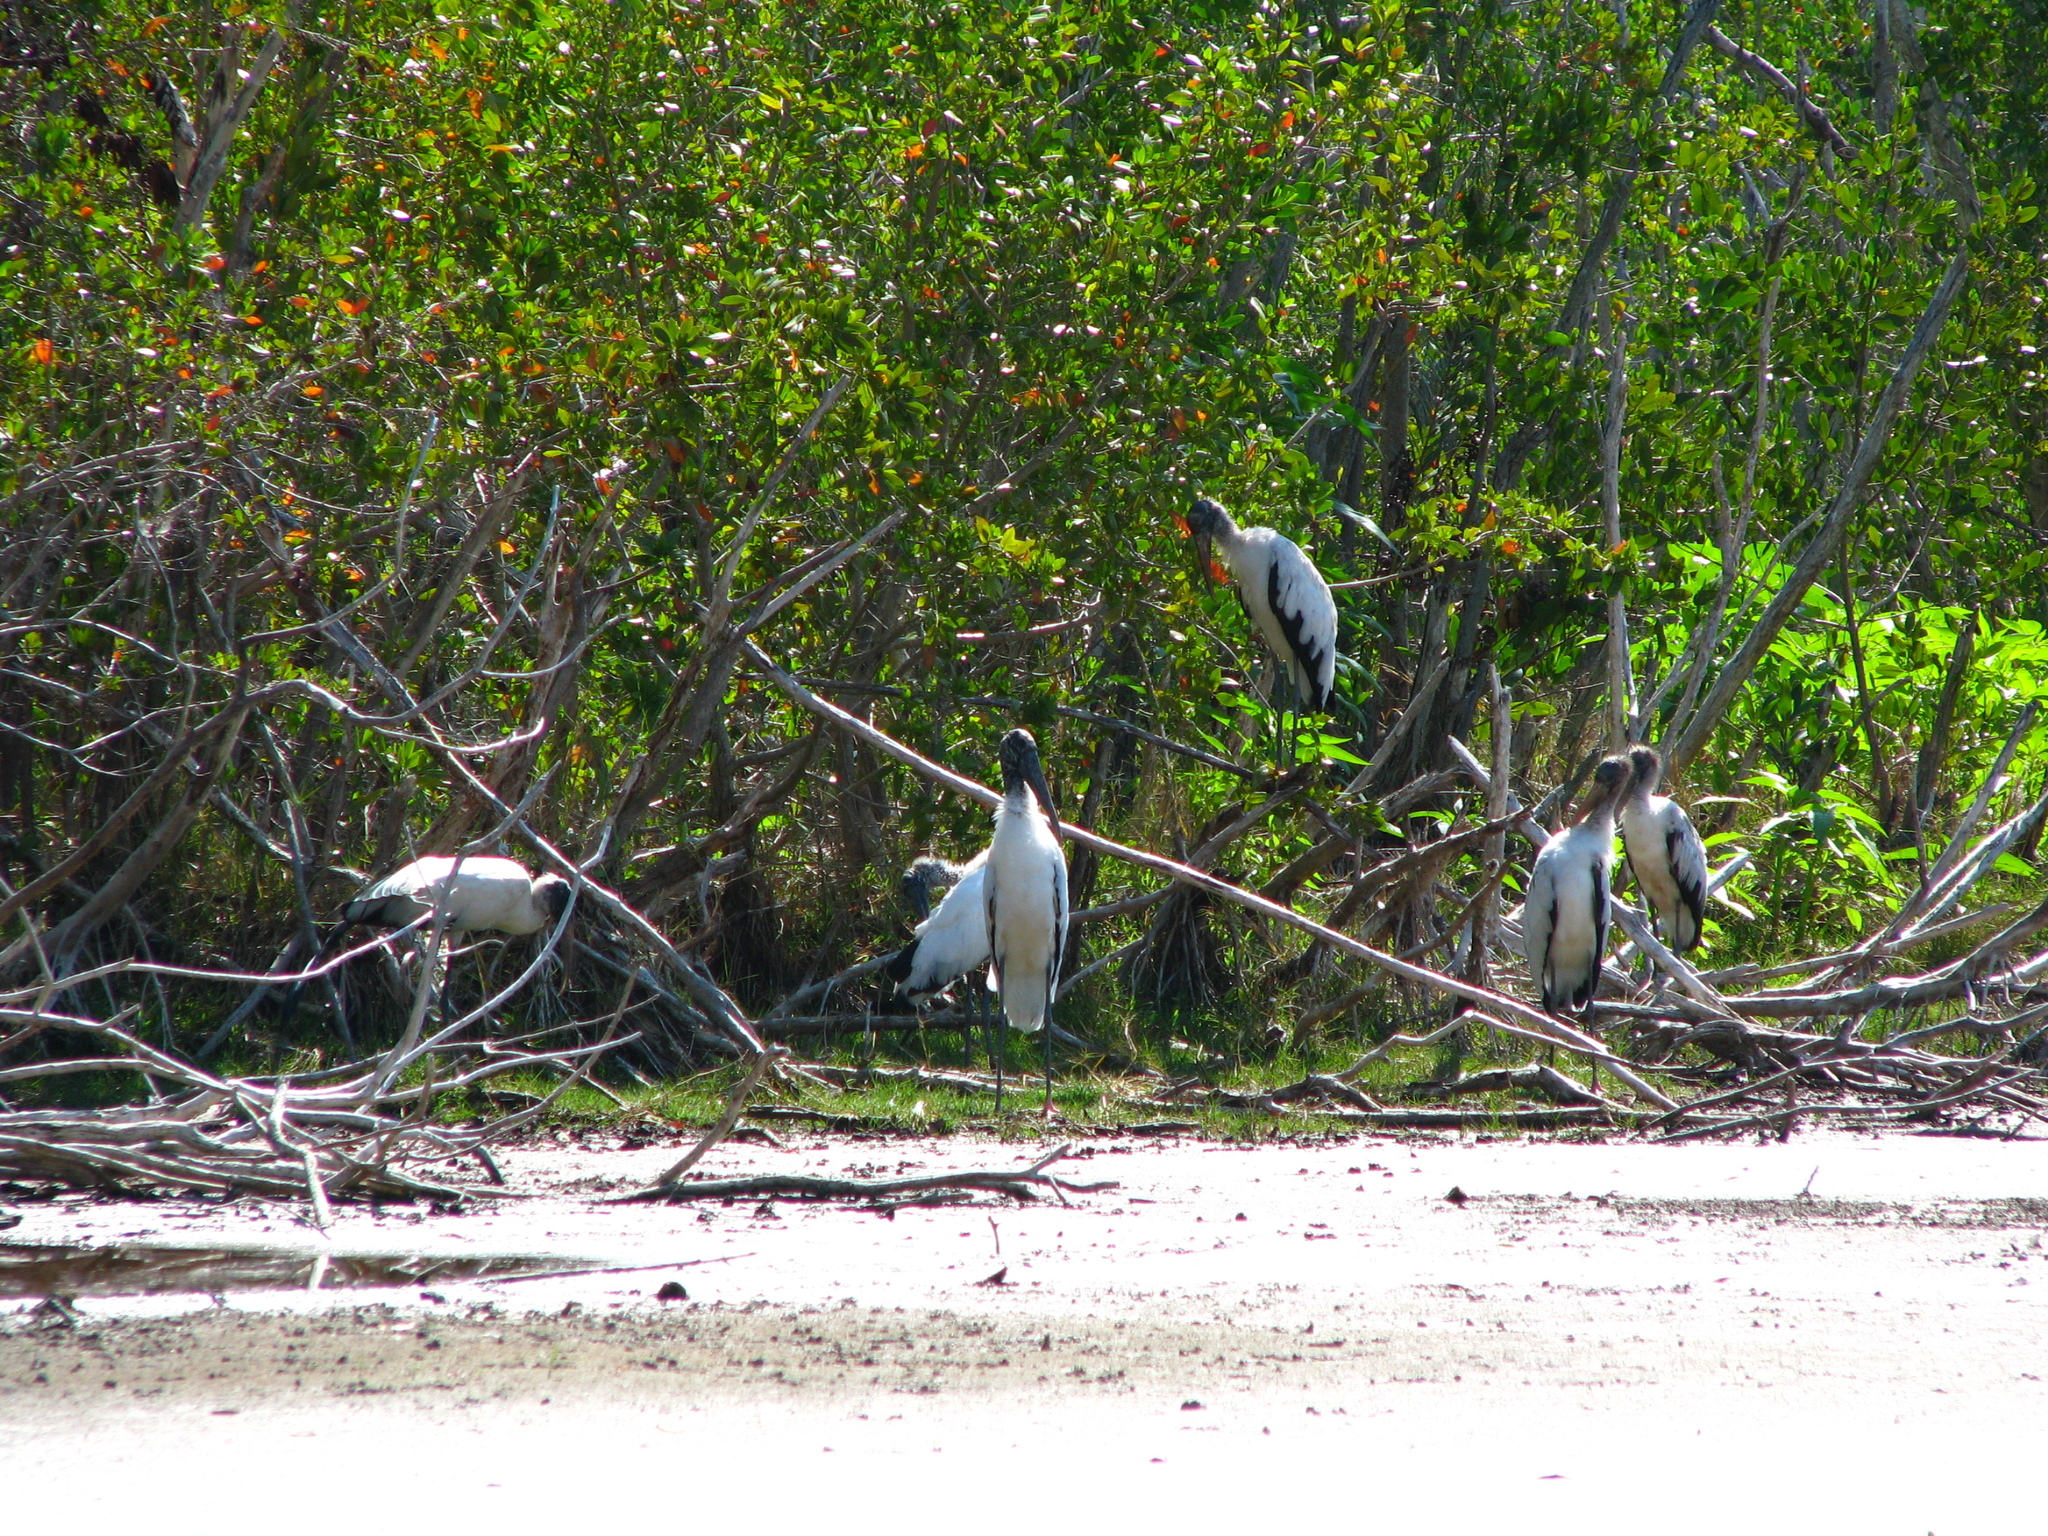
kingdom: Animalia
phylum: Chordata
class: Aves
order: Ciconiiformes
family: Ciconiidae
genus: Mycteria
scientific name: Mycteria americana
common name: Wood stork
